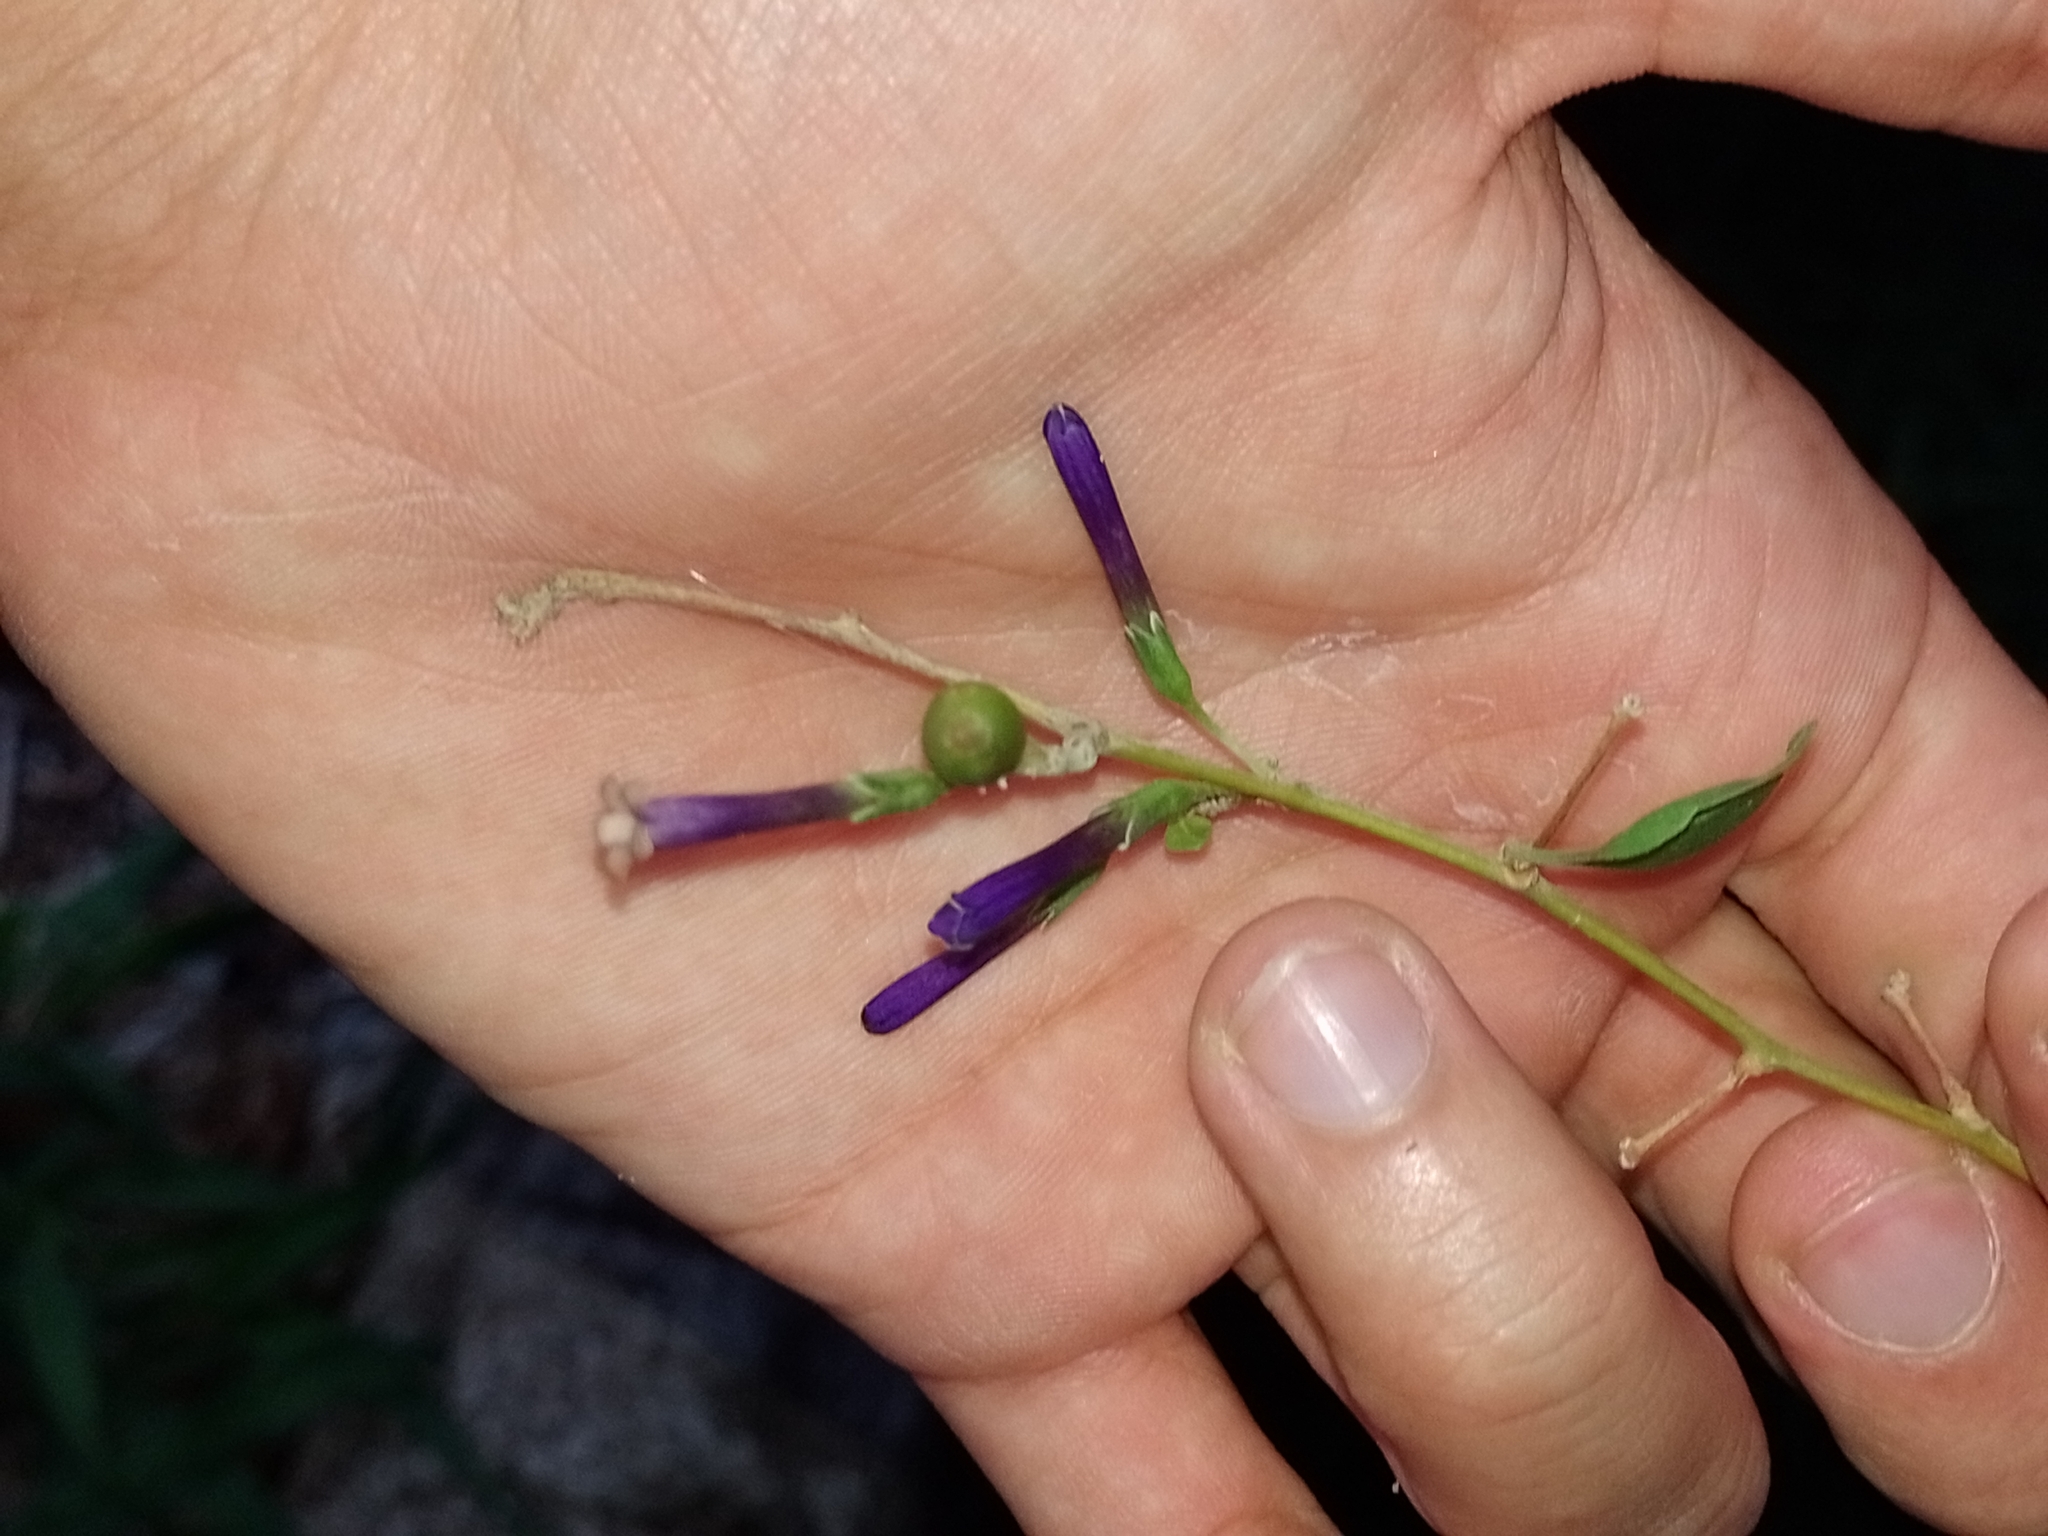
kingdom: Plantae
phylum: Tracheophyta
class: Magnoliopsida
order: Solanales
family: Solanaceae
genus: Lycium
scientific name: Lycium cestroides
